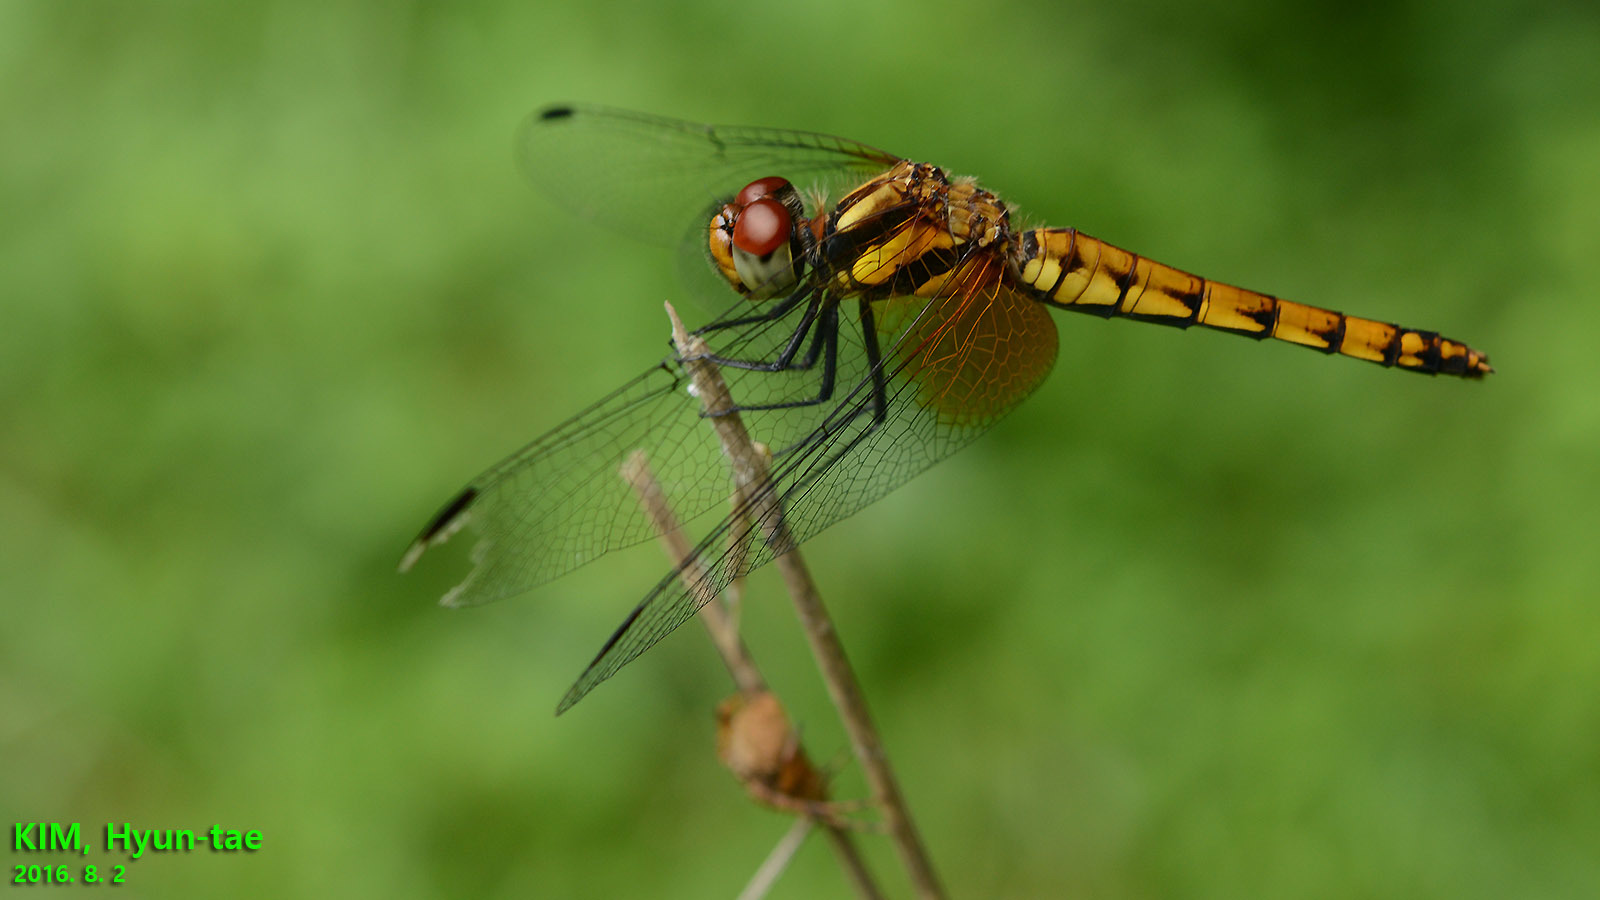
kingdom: Animalia
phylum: Arthropoda
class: Insecta
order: Odonata
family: Libellulidae
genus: Sympetrum
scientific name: Sympetrum speciosum
